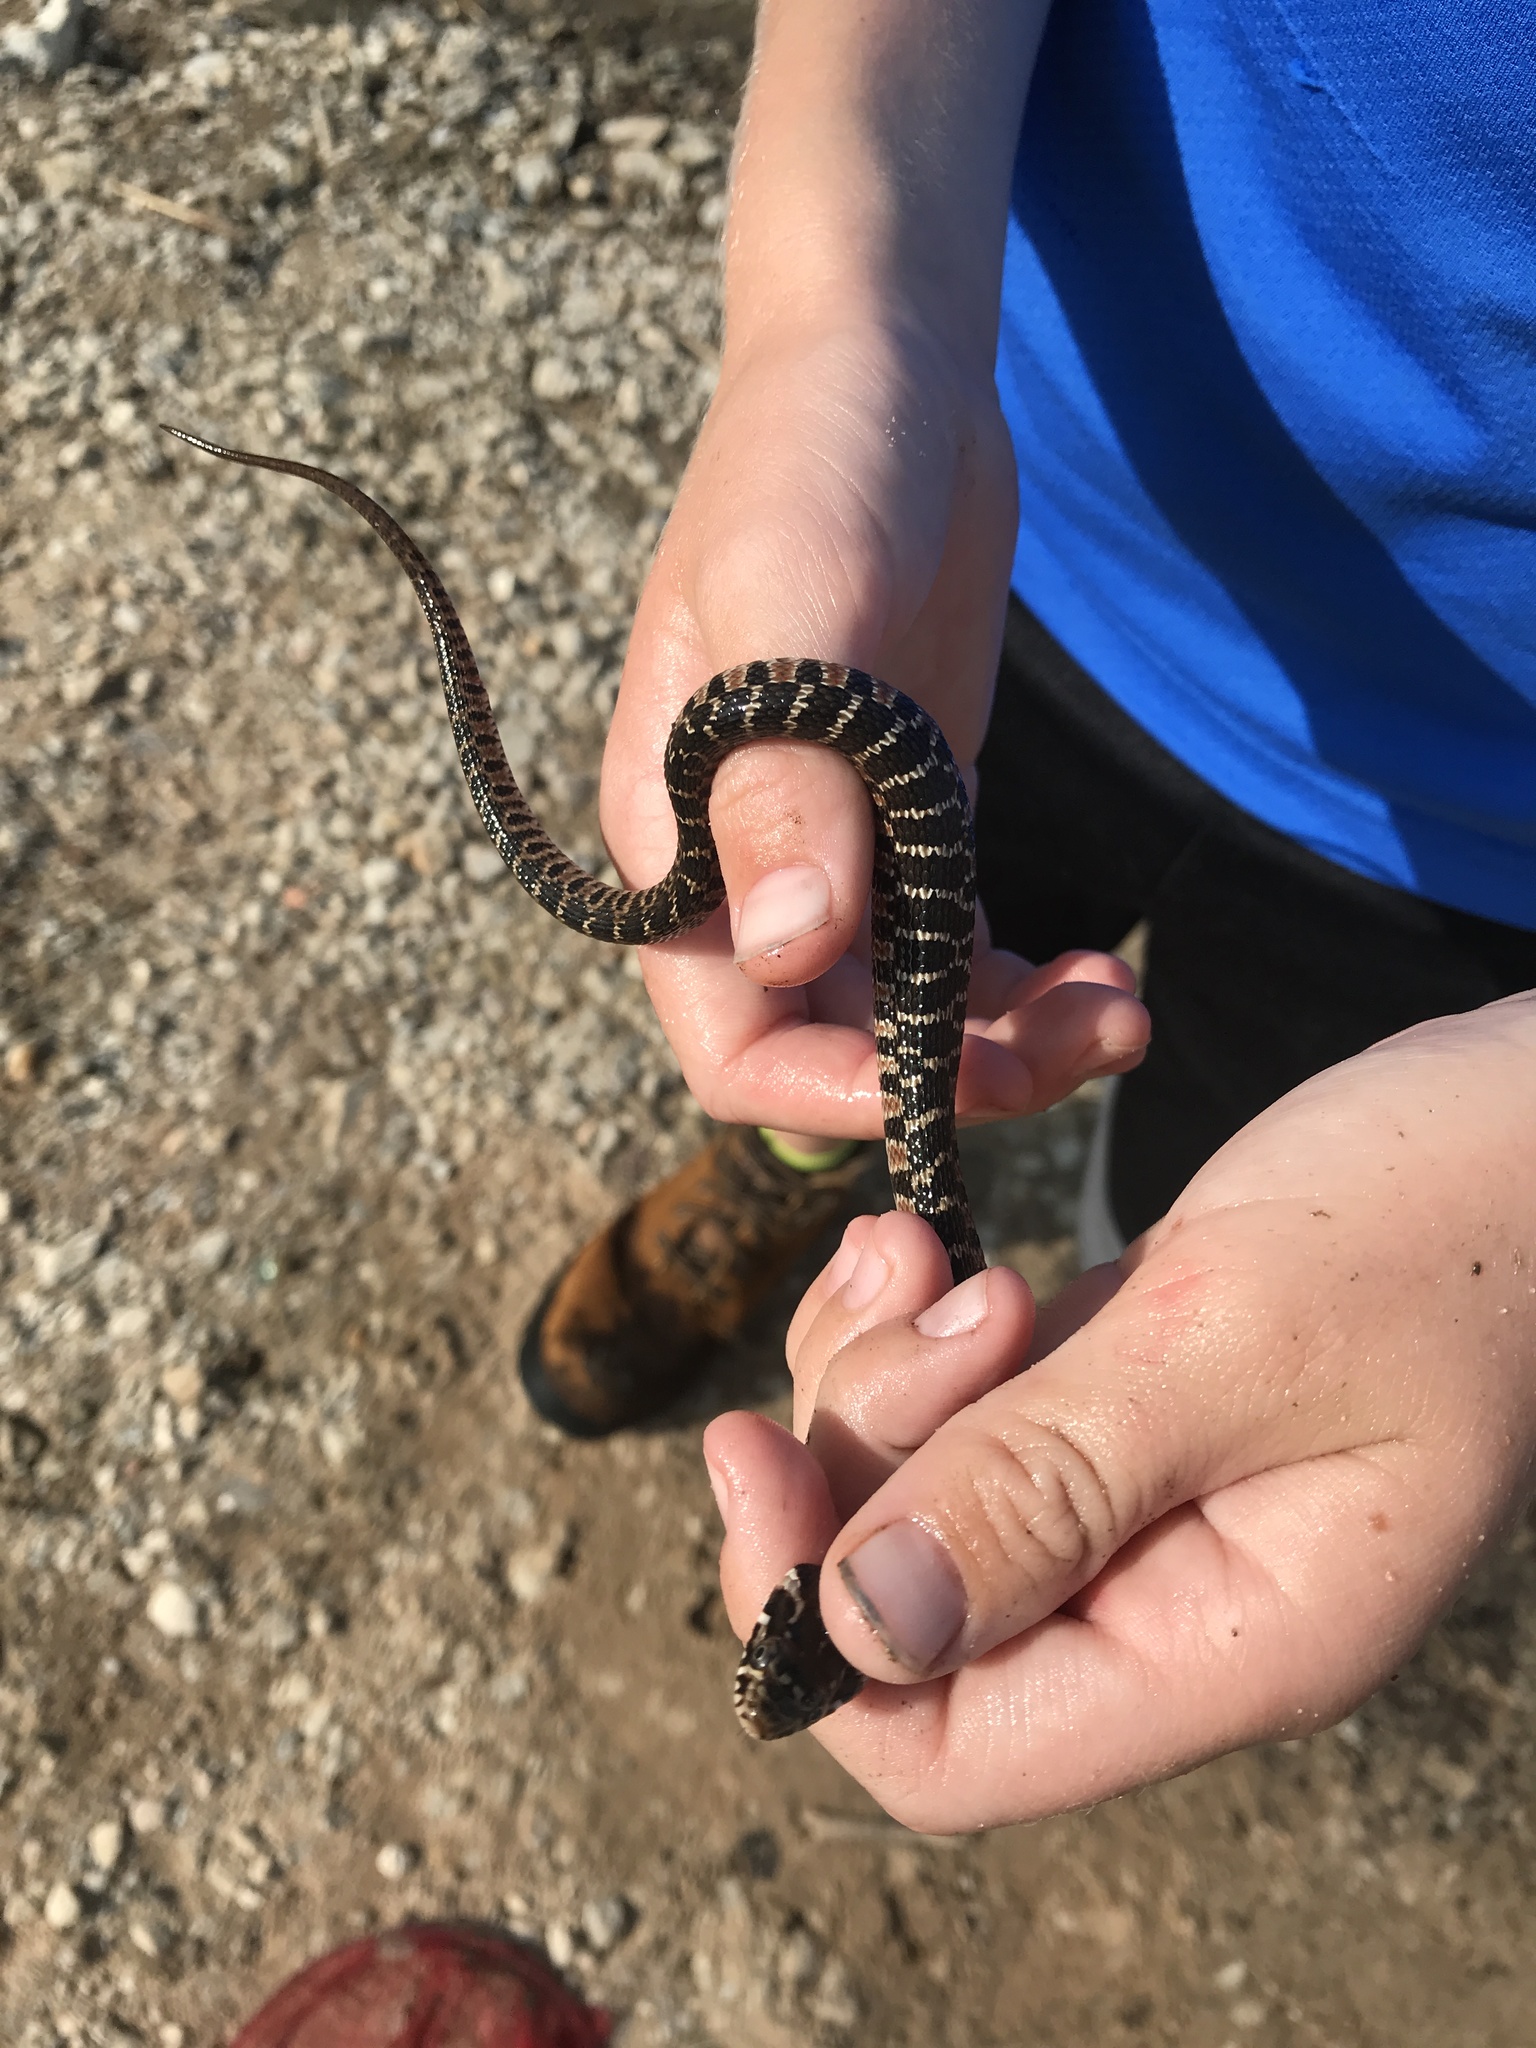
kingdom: Animalia
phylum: Chordata
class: Squamata
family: Colubridae
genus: Nerodia
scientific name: Nerodia erythrogaster
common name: Plainbelly water snake
